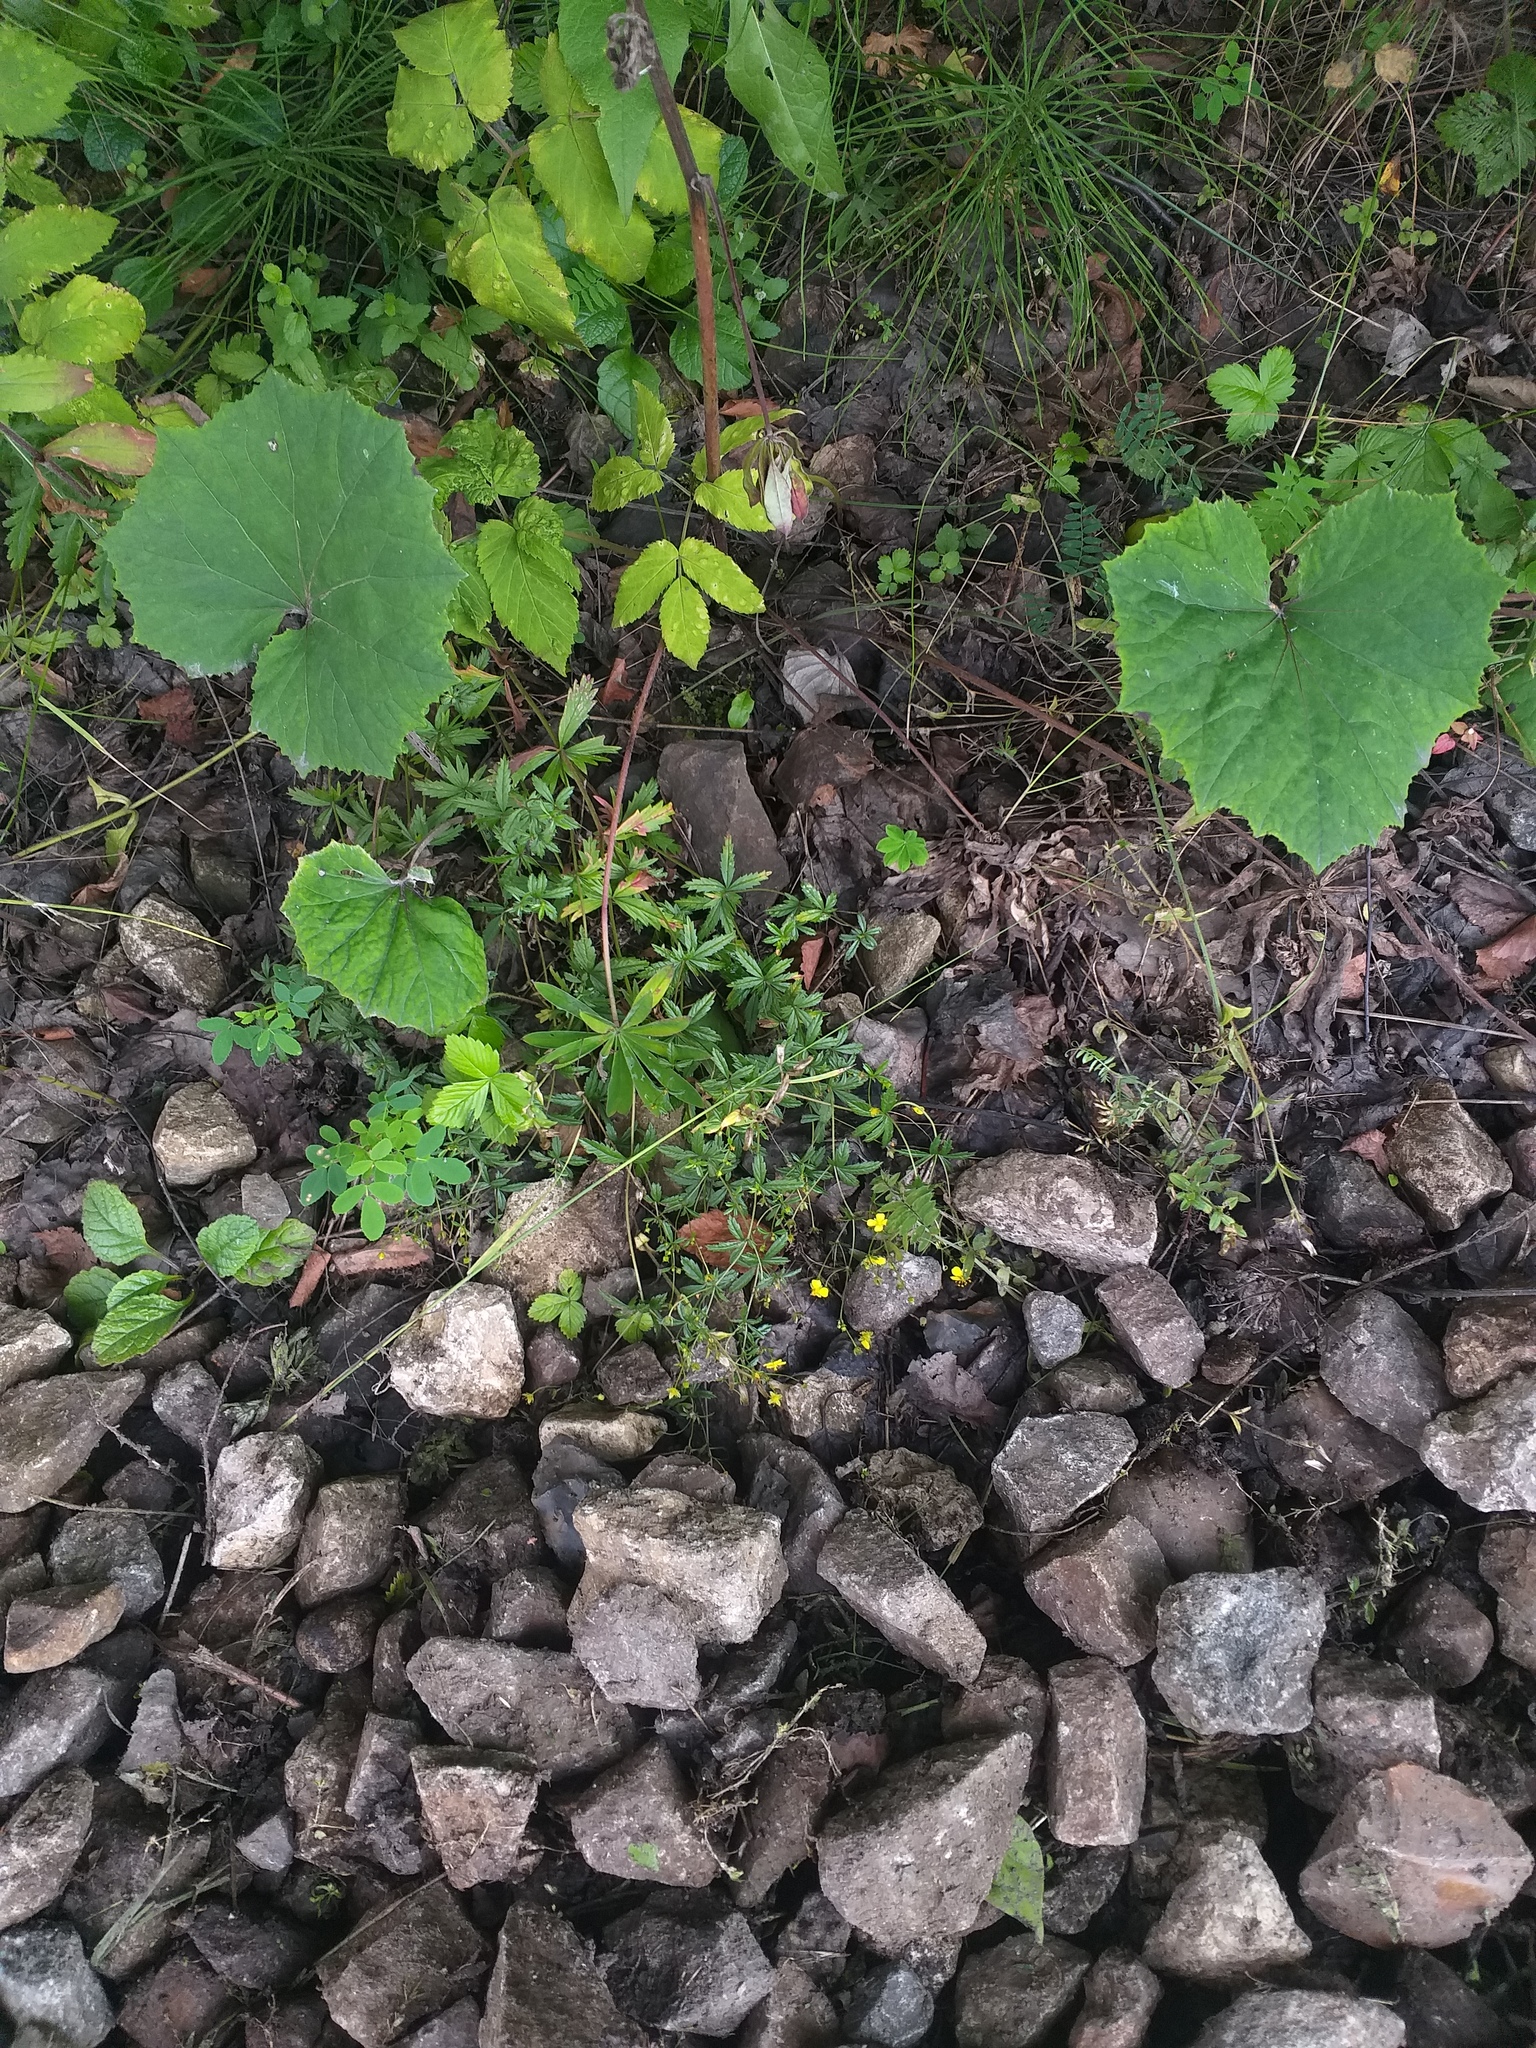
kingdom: Plantae
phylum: Tracheophyta
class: Magnoliopsida
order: Rosales
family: Rosaceae
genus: Potentilla
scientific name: Potentilla erecta
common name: Tormentil
